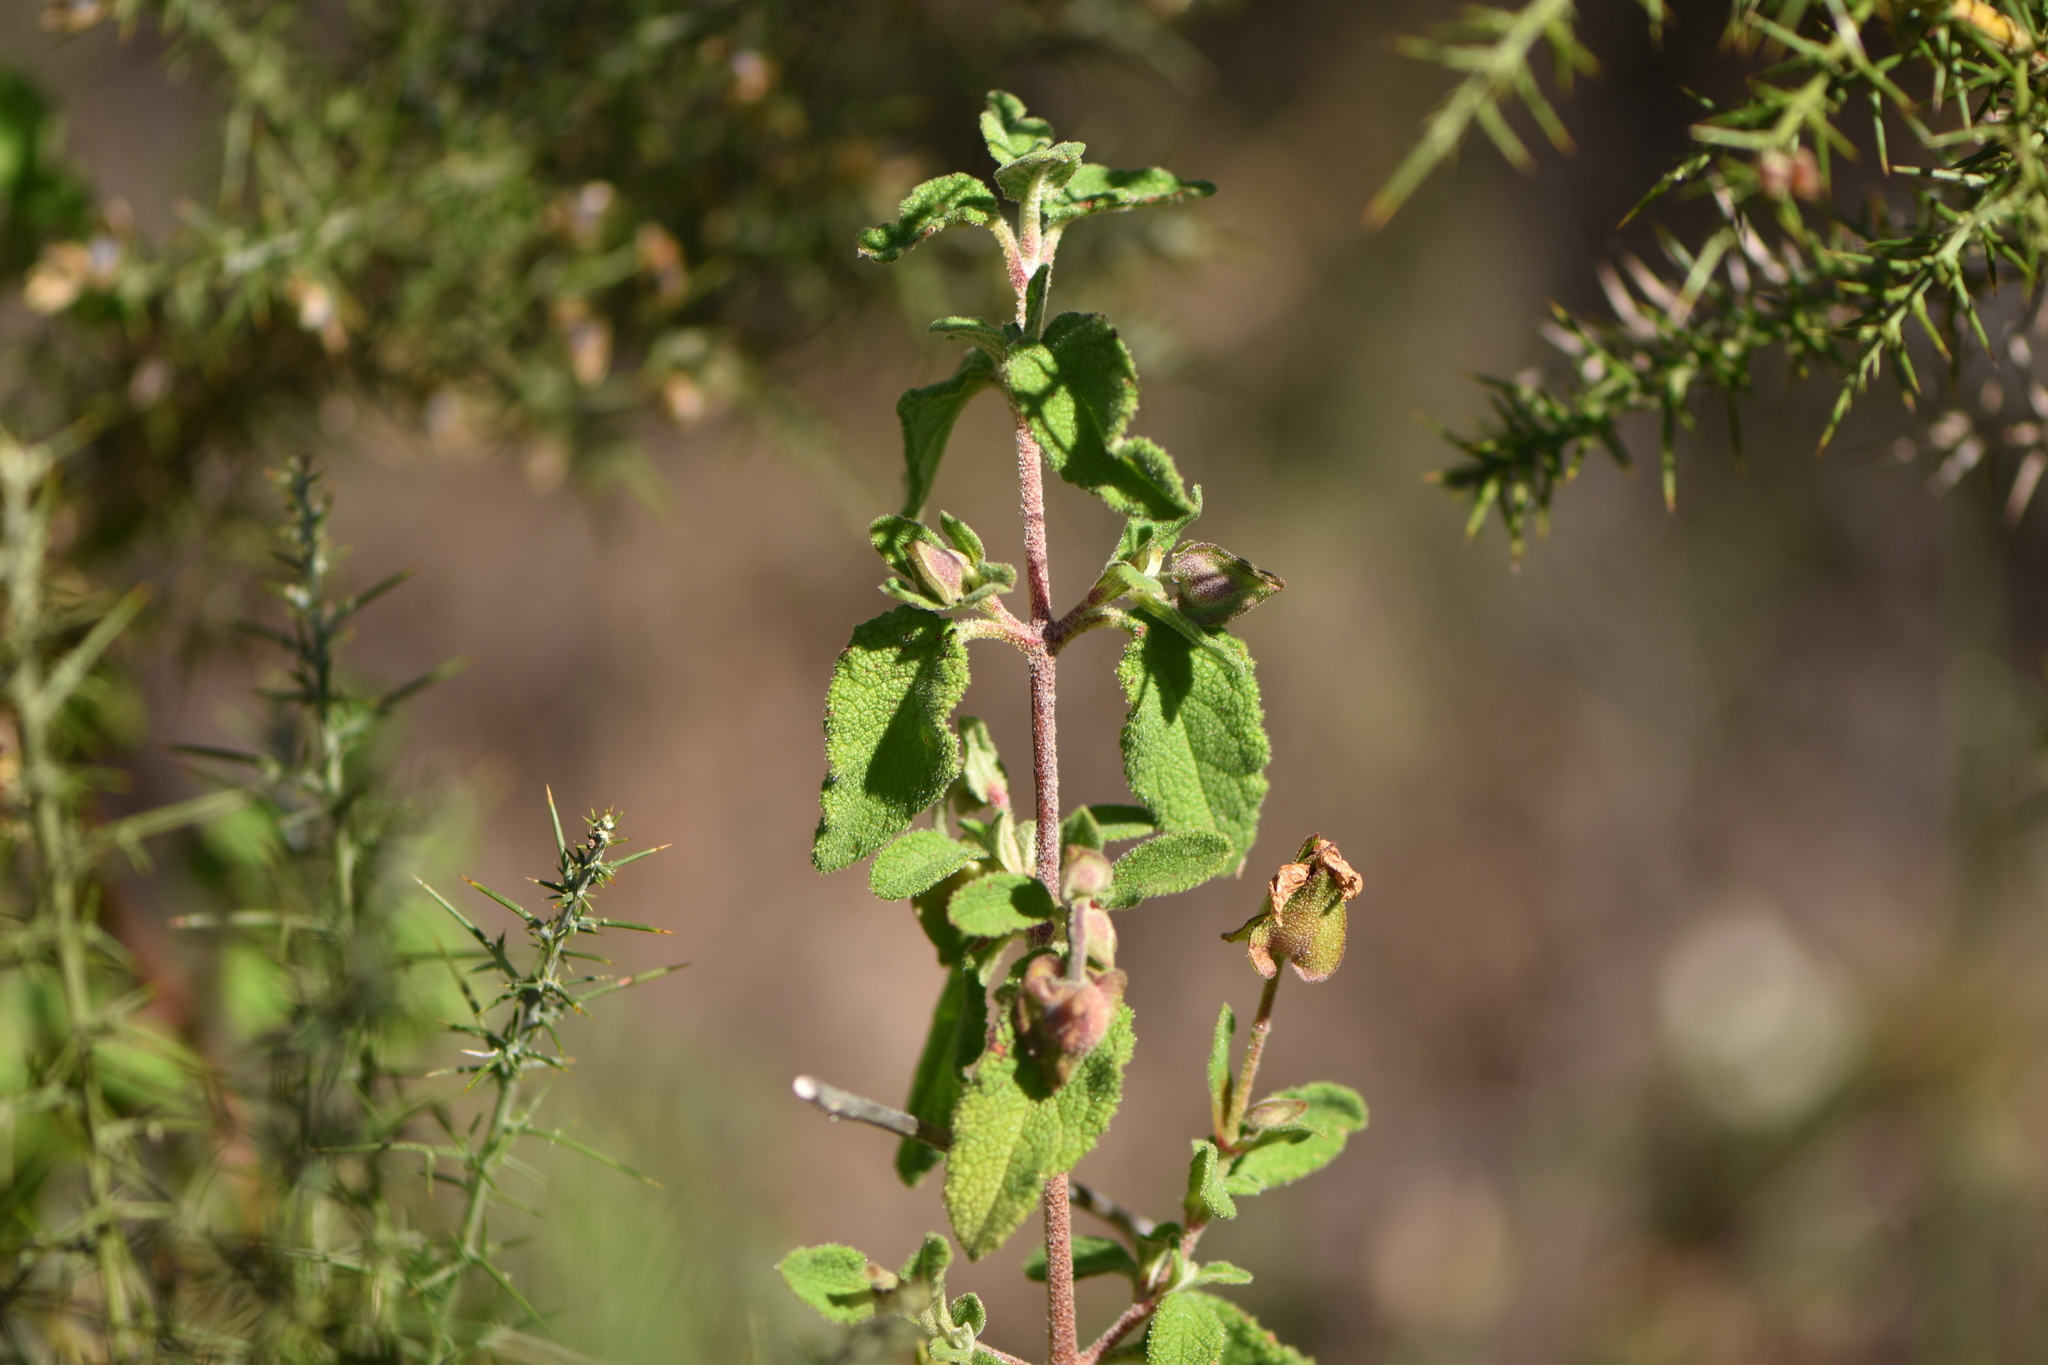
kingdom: Plantae
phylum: Tracheophyta
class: Magnoliopsida
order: Malvales
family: Cistaceae
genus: Cistus
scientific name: Cistus salviifolius
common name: Salvia cistus
